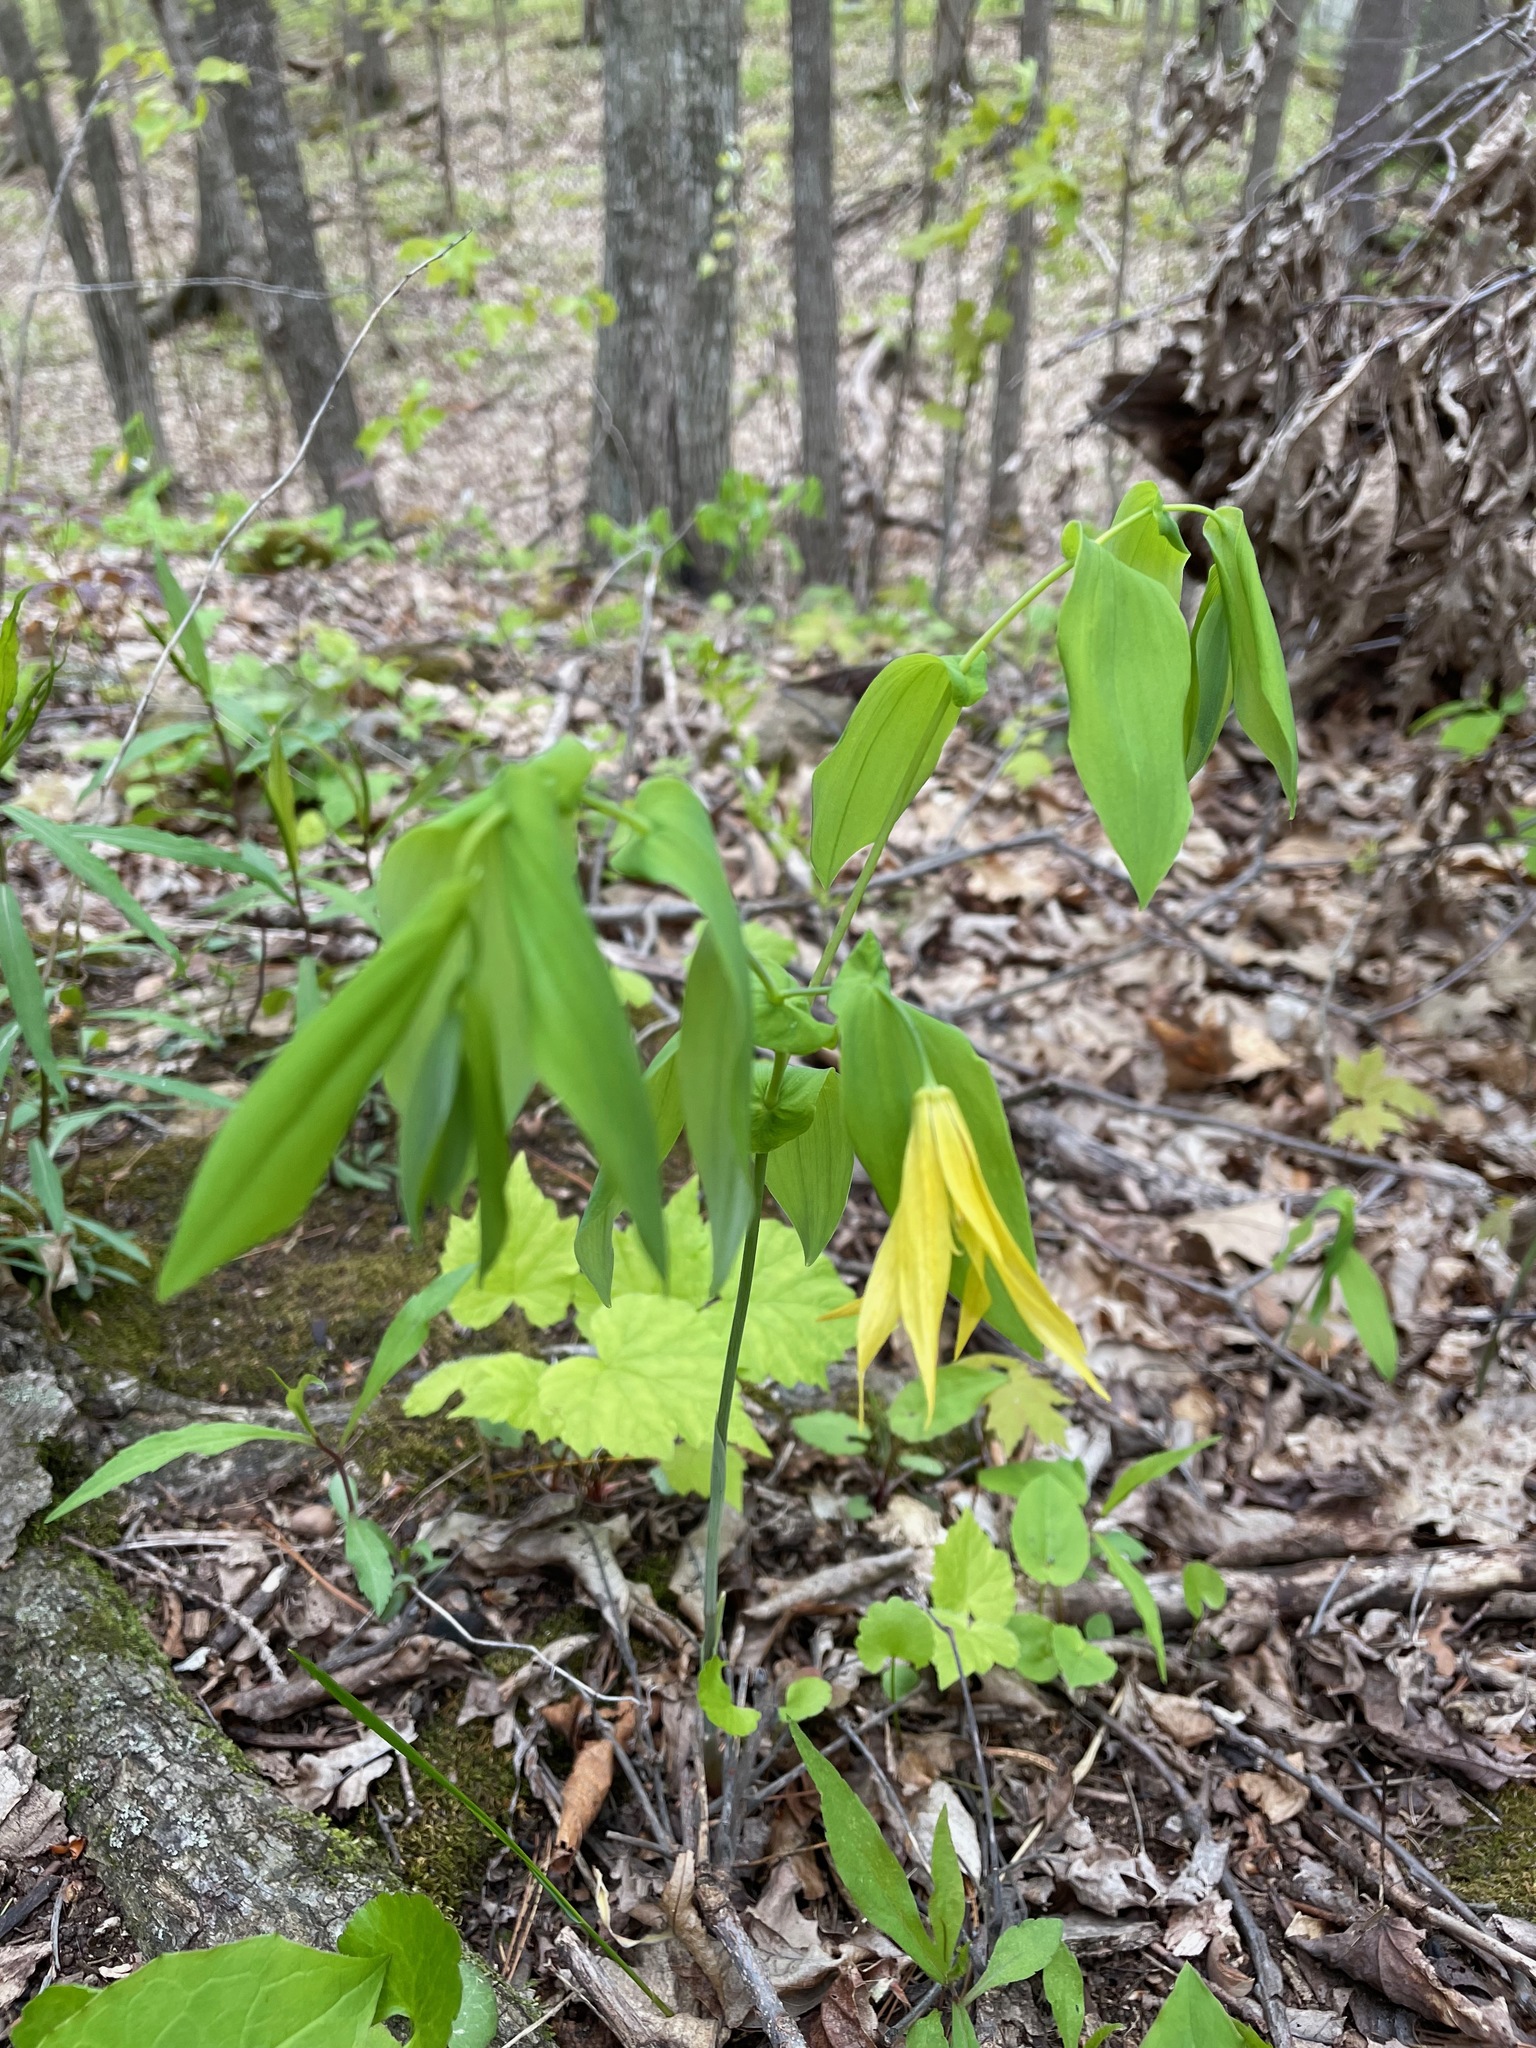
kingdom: Plantae
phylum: Tracheophyta
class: Liliopsida
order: Liliales
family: Colchicaceae
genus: Uvularia
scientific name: Uvularia grandiflora
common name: Bellwort
